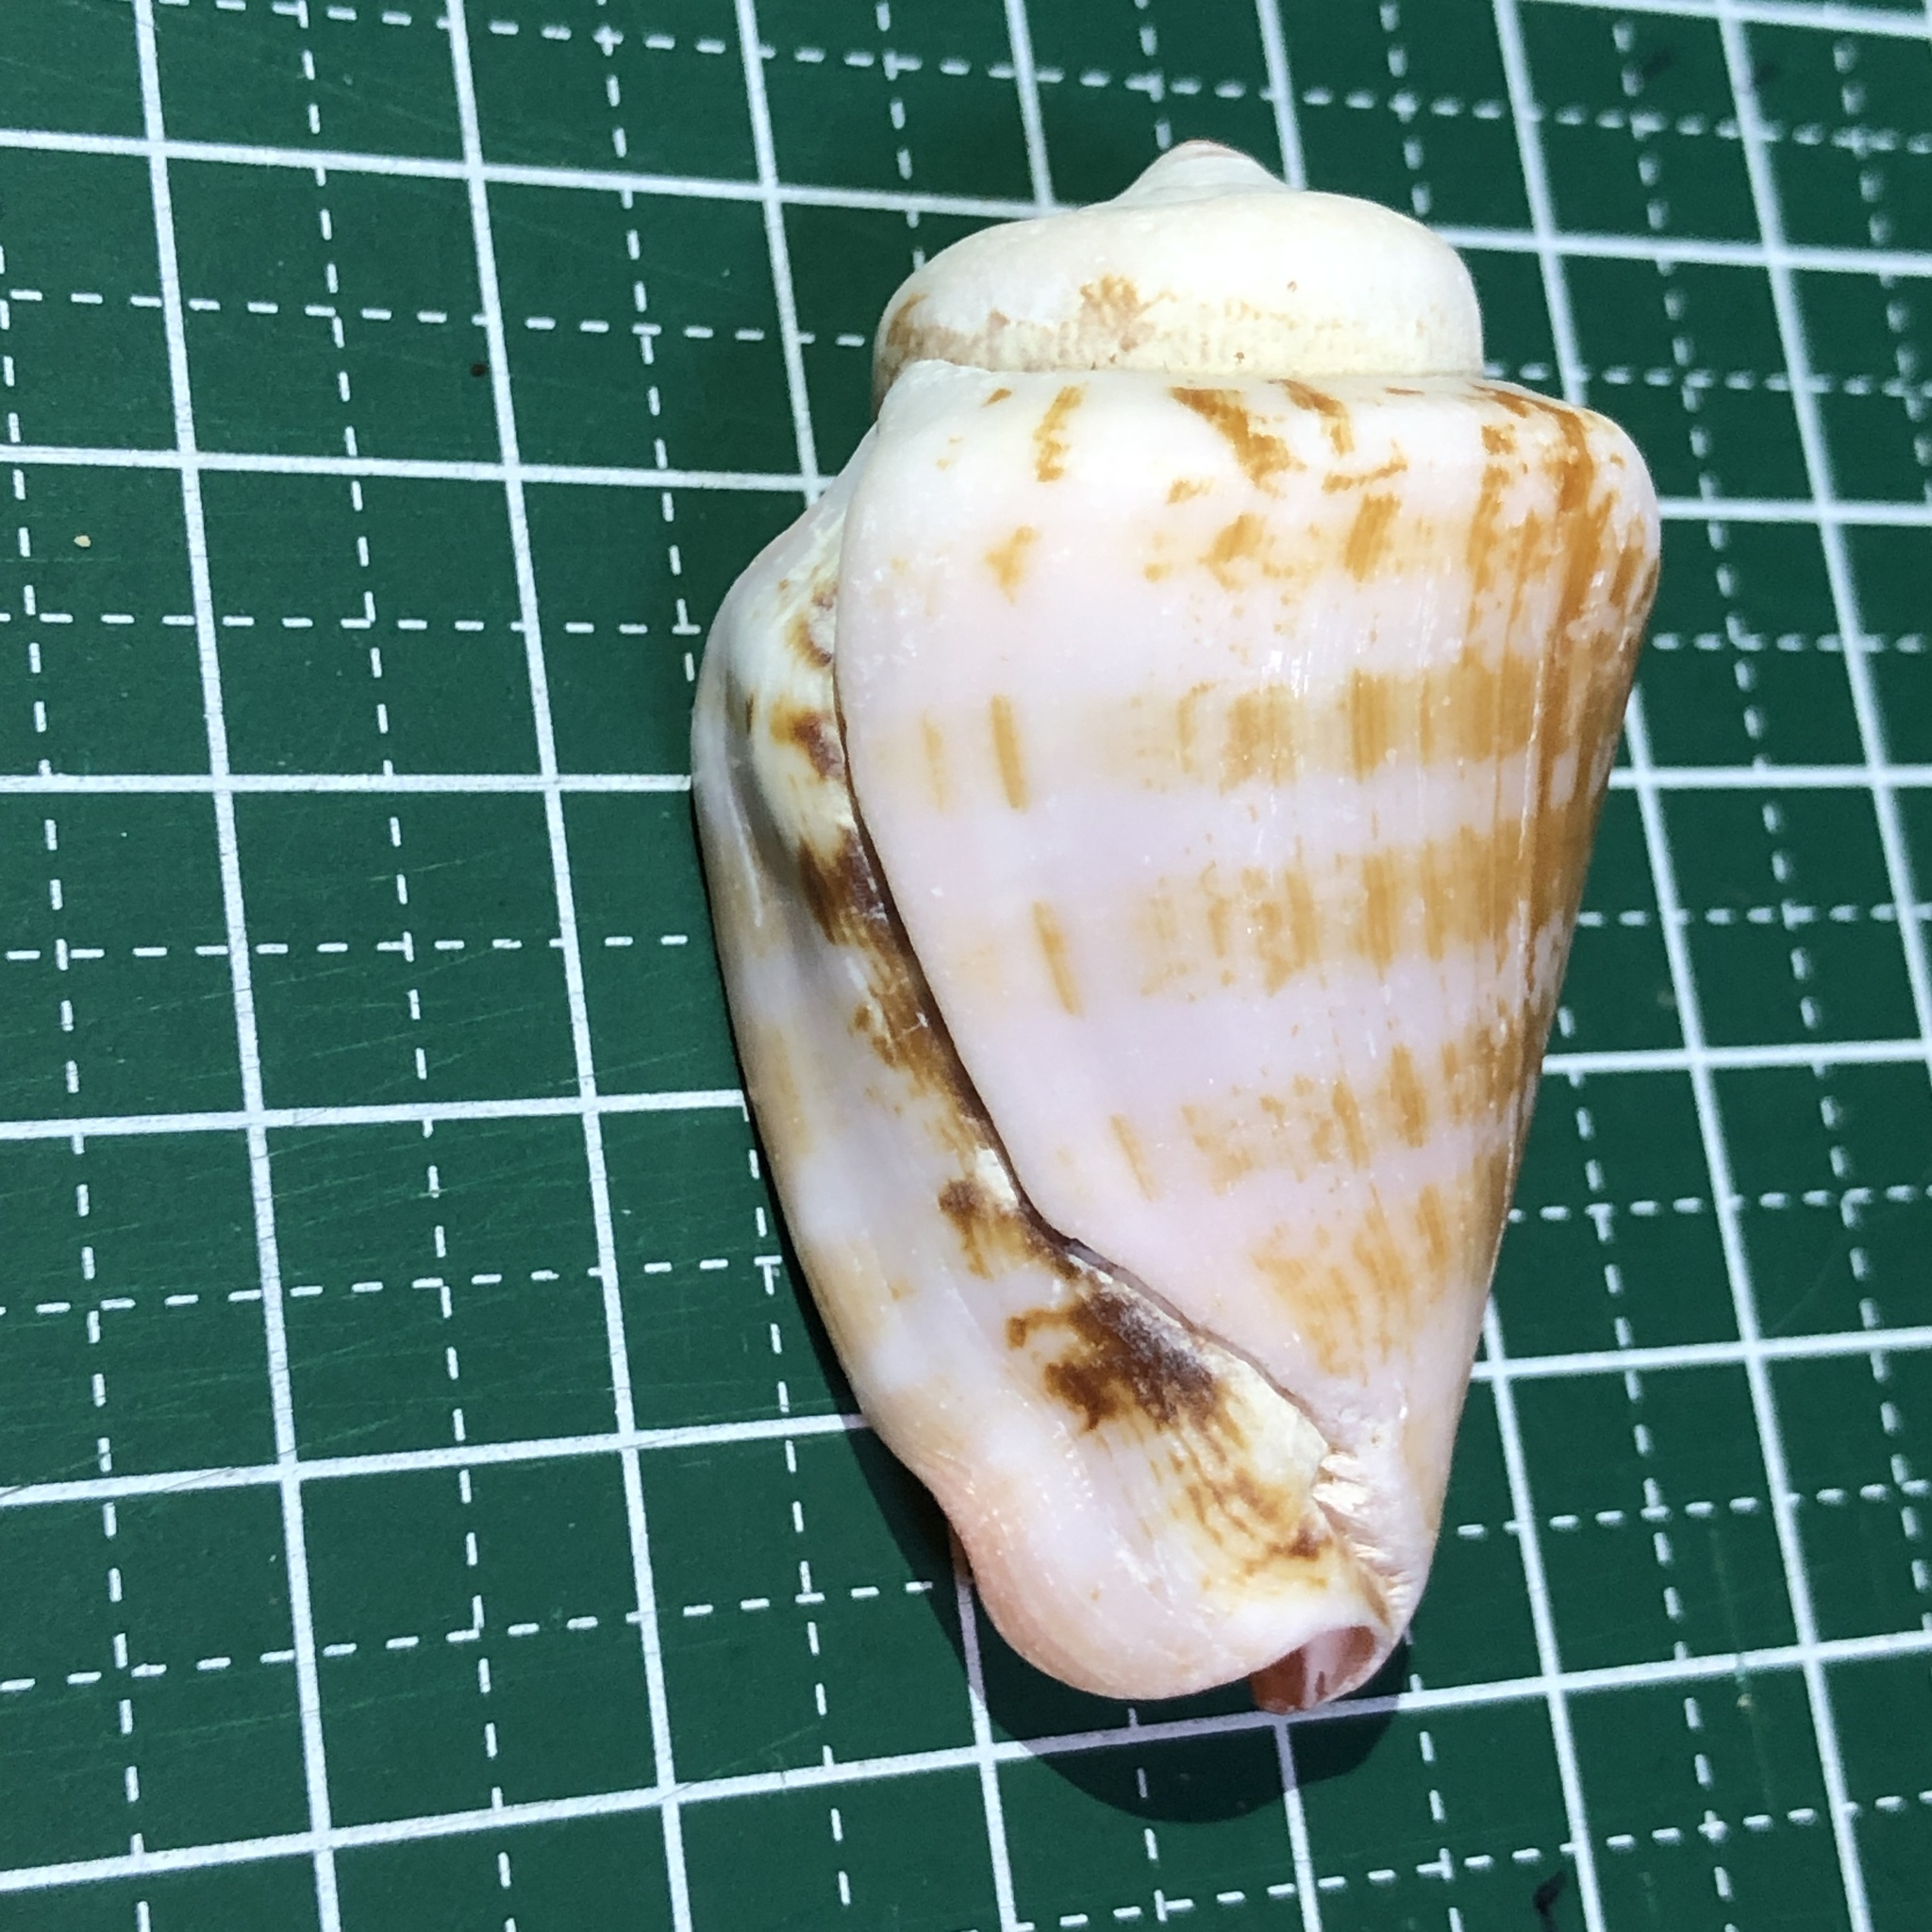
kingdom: Animalia
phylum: Mollusca
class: Gastropoda
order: Littorinimorpha
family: Strombidae
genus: Conomurex
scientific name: Conomurex luhuanus
